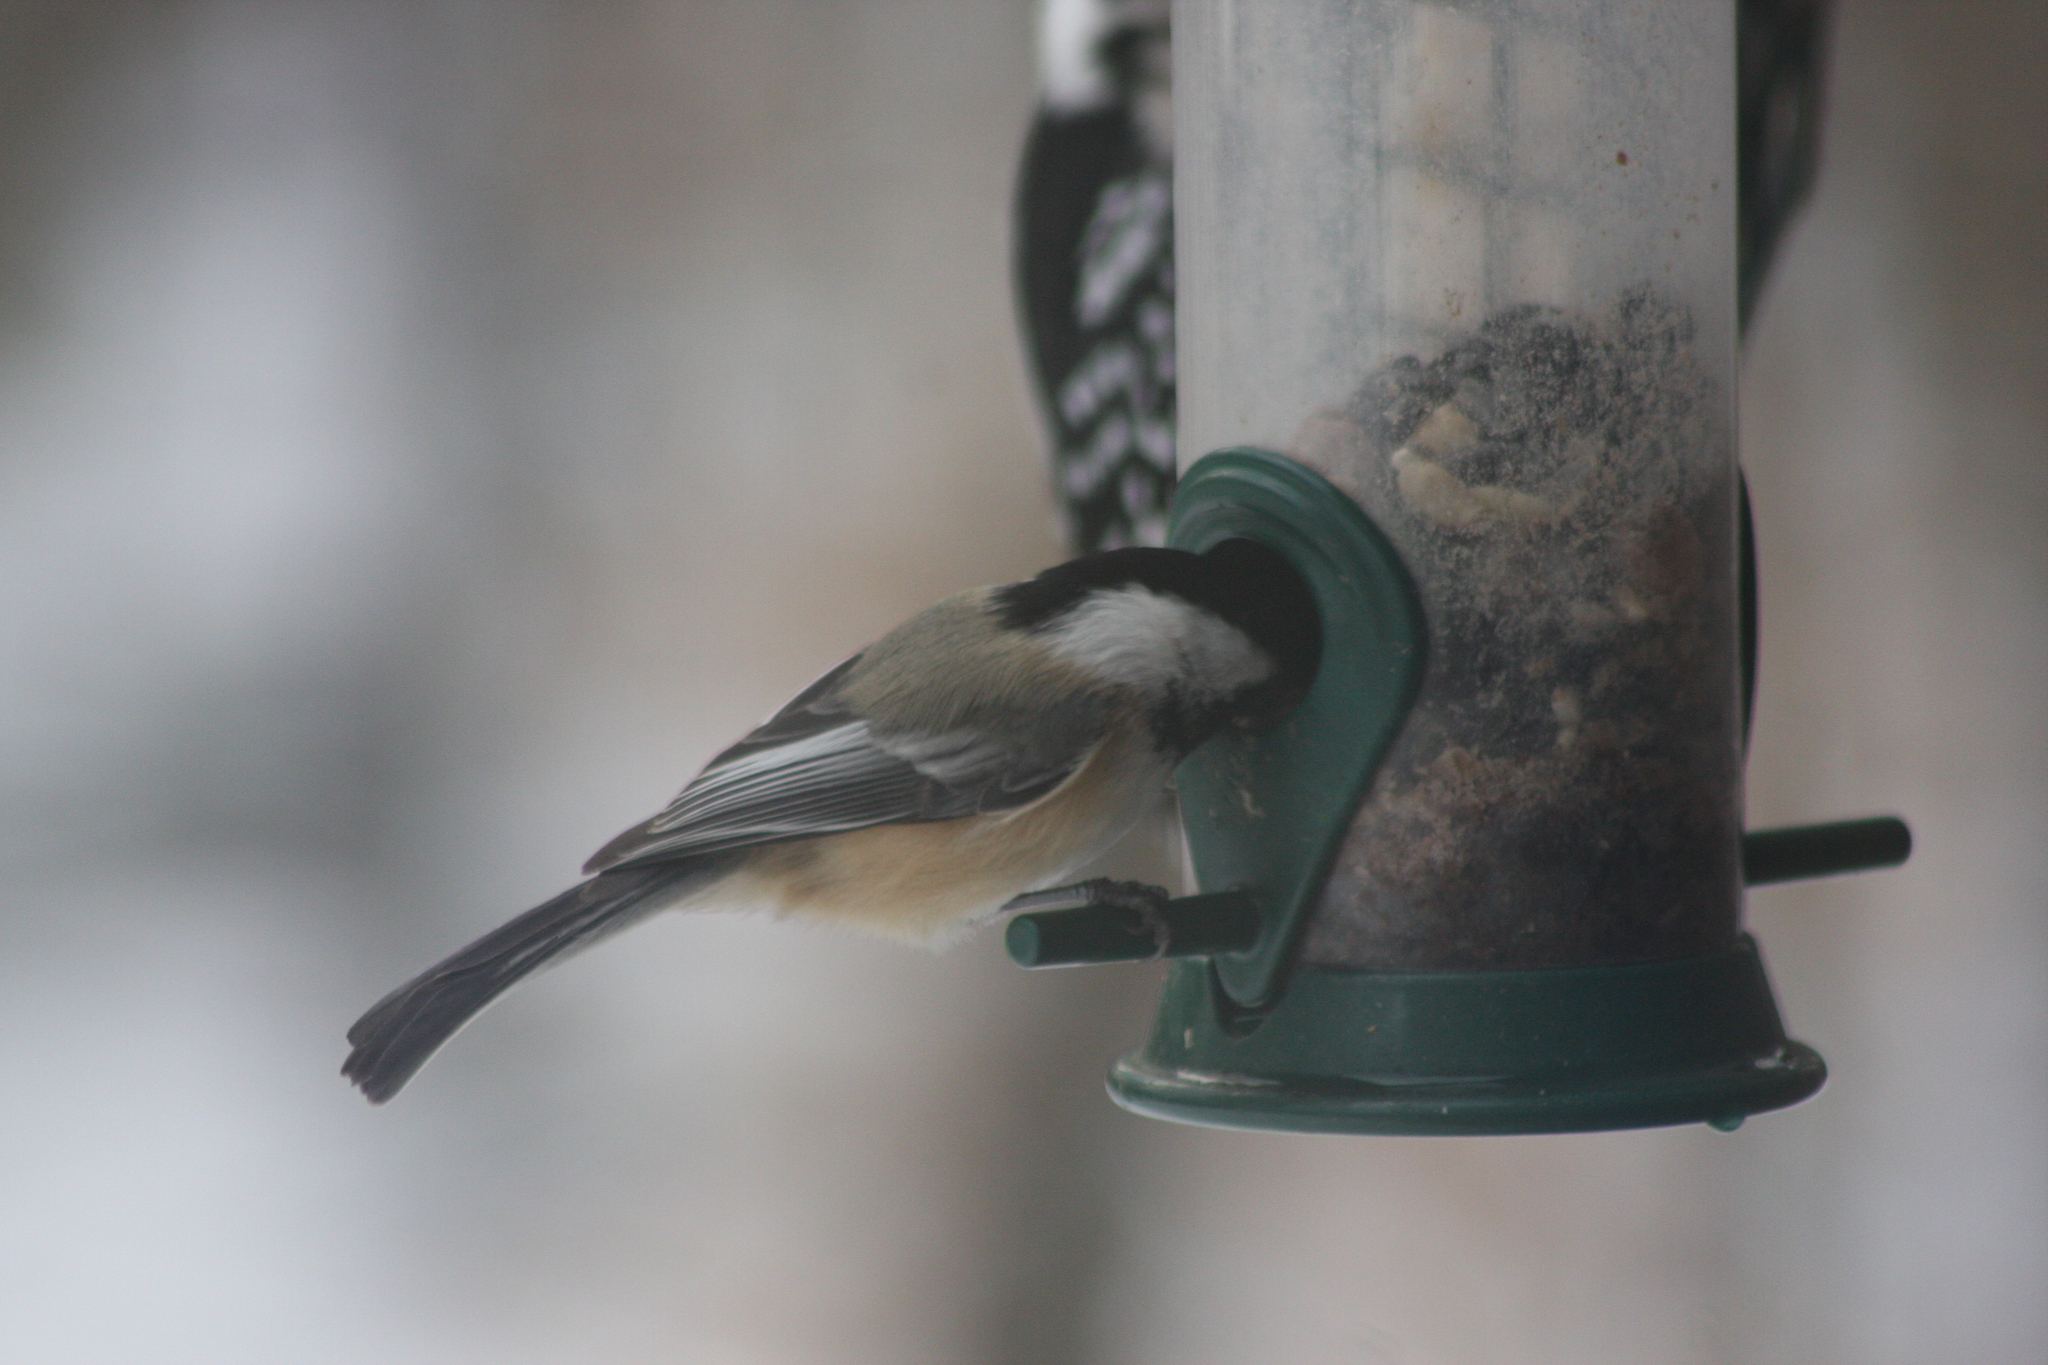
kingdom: Animalia
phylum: Chordata
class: Aves
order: Passeriformes
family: Paridae
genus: Poecile
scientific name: Poecile atricapillus
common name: Black-capped chickadee
